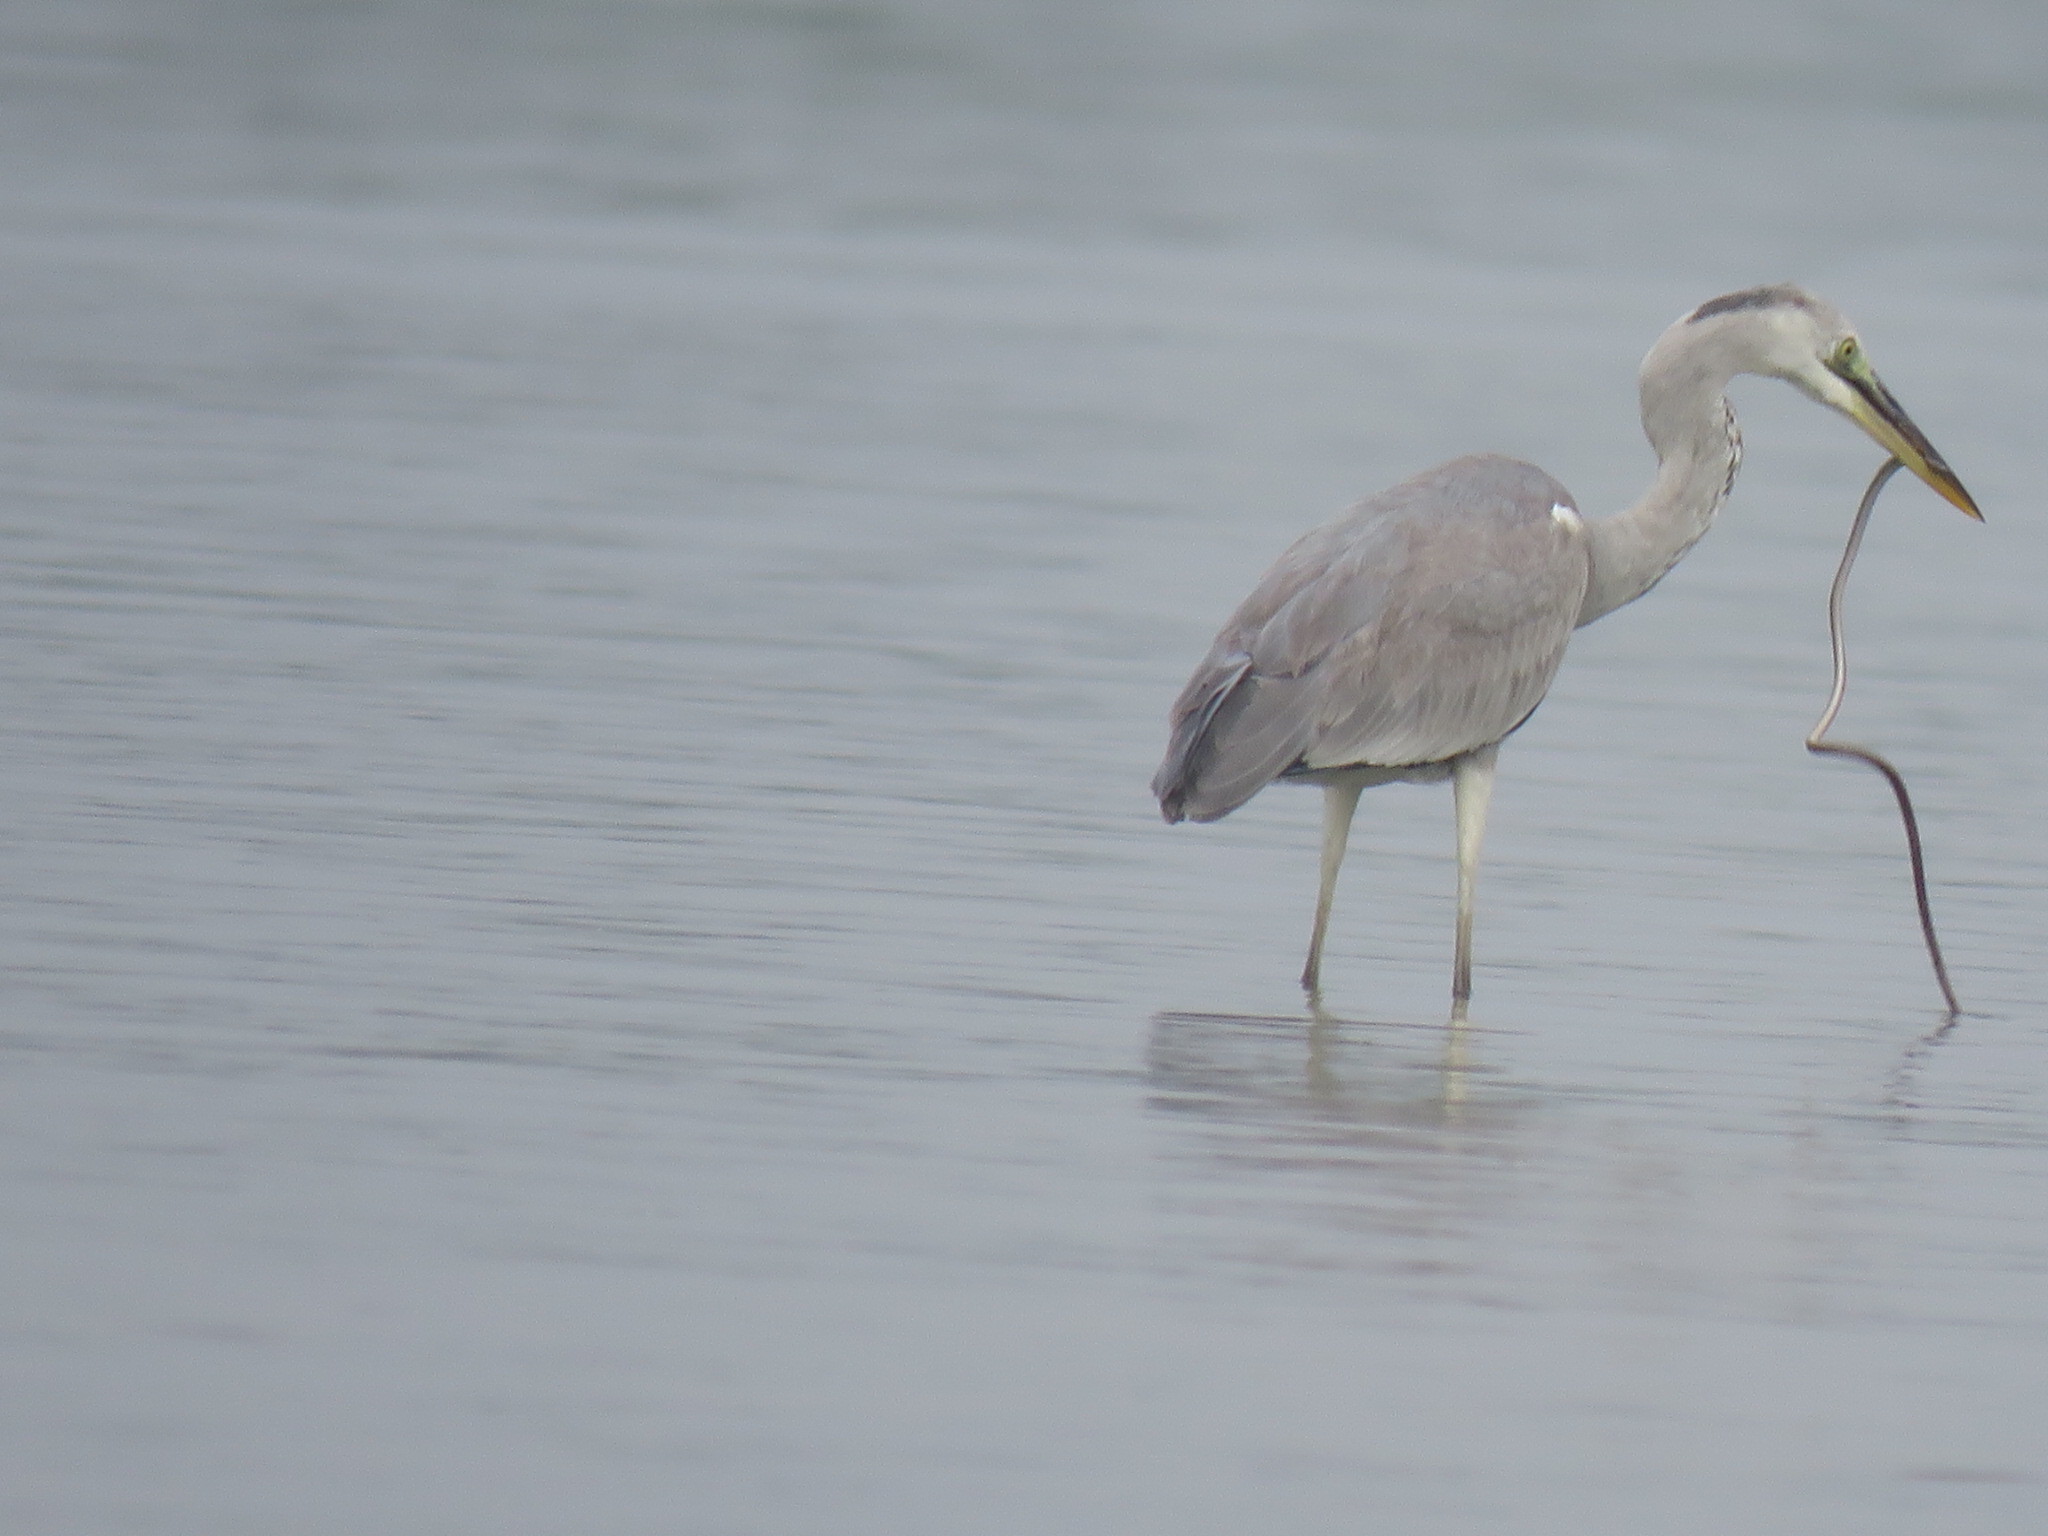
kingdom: Animalia
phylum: Chordata
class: Aves
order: Pelecaniformes
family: Ardeidae
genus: Ardea
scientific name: Ardea cinerea
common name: Grey heron
